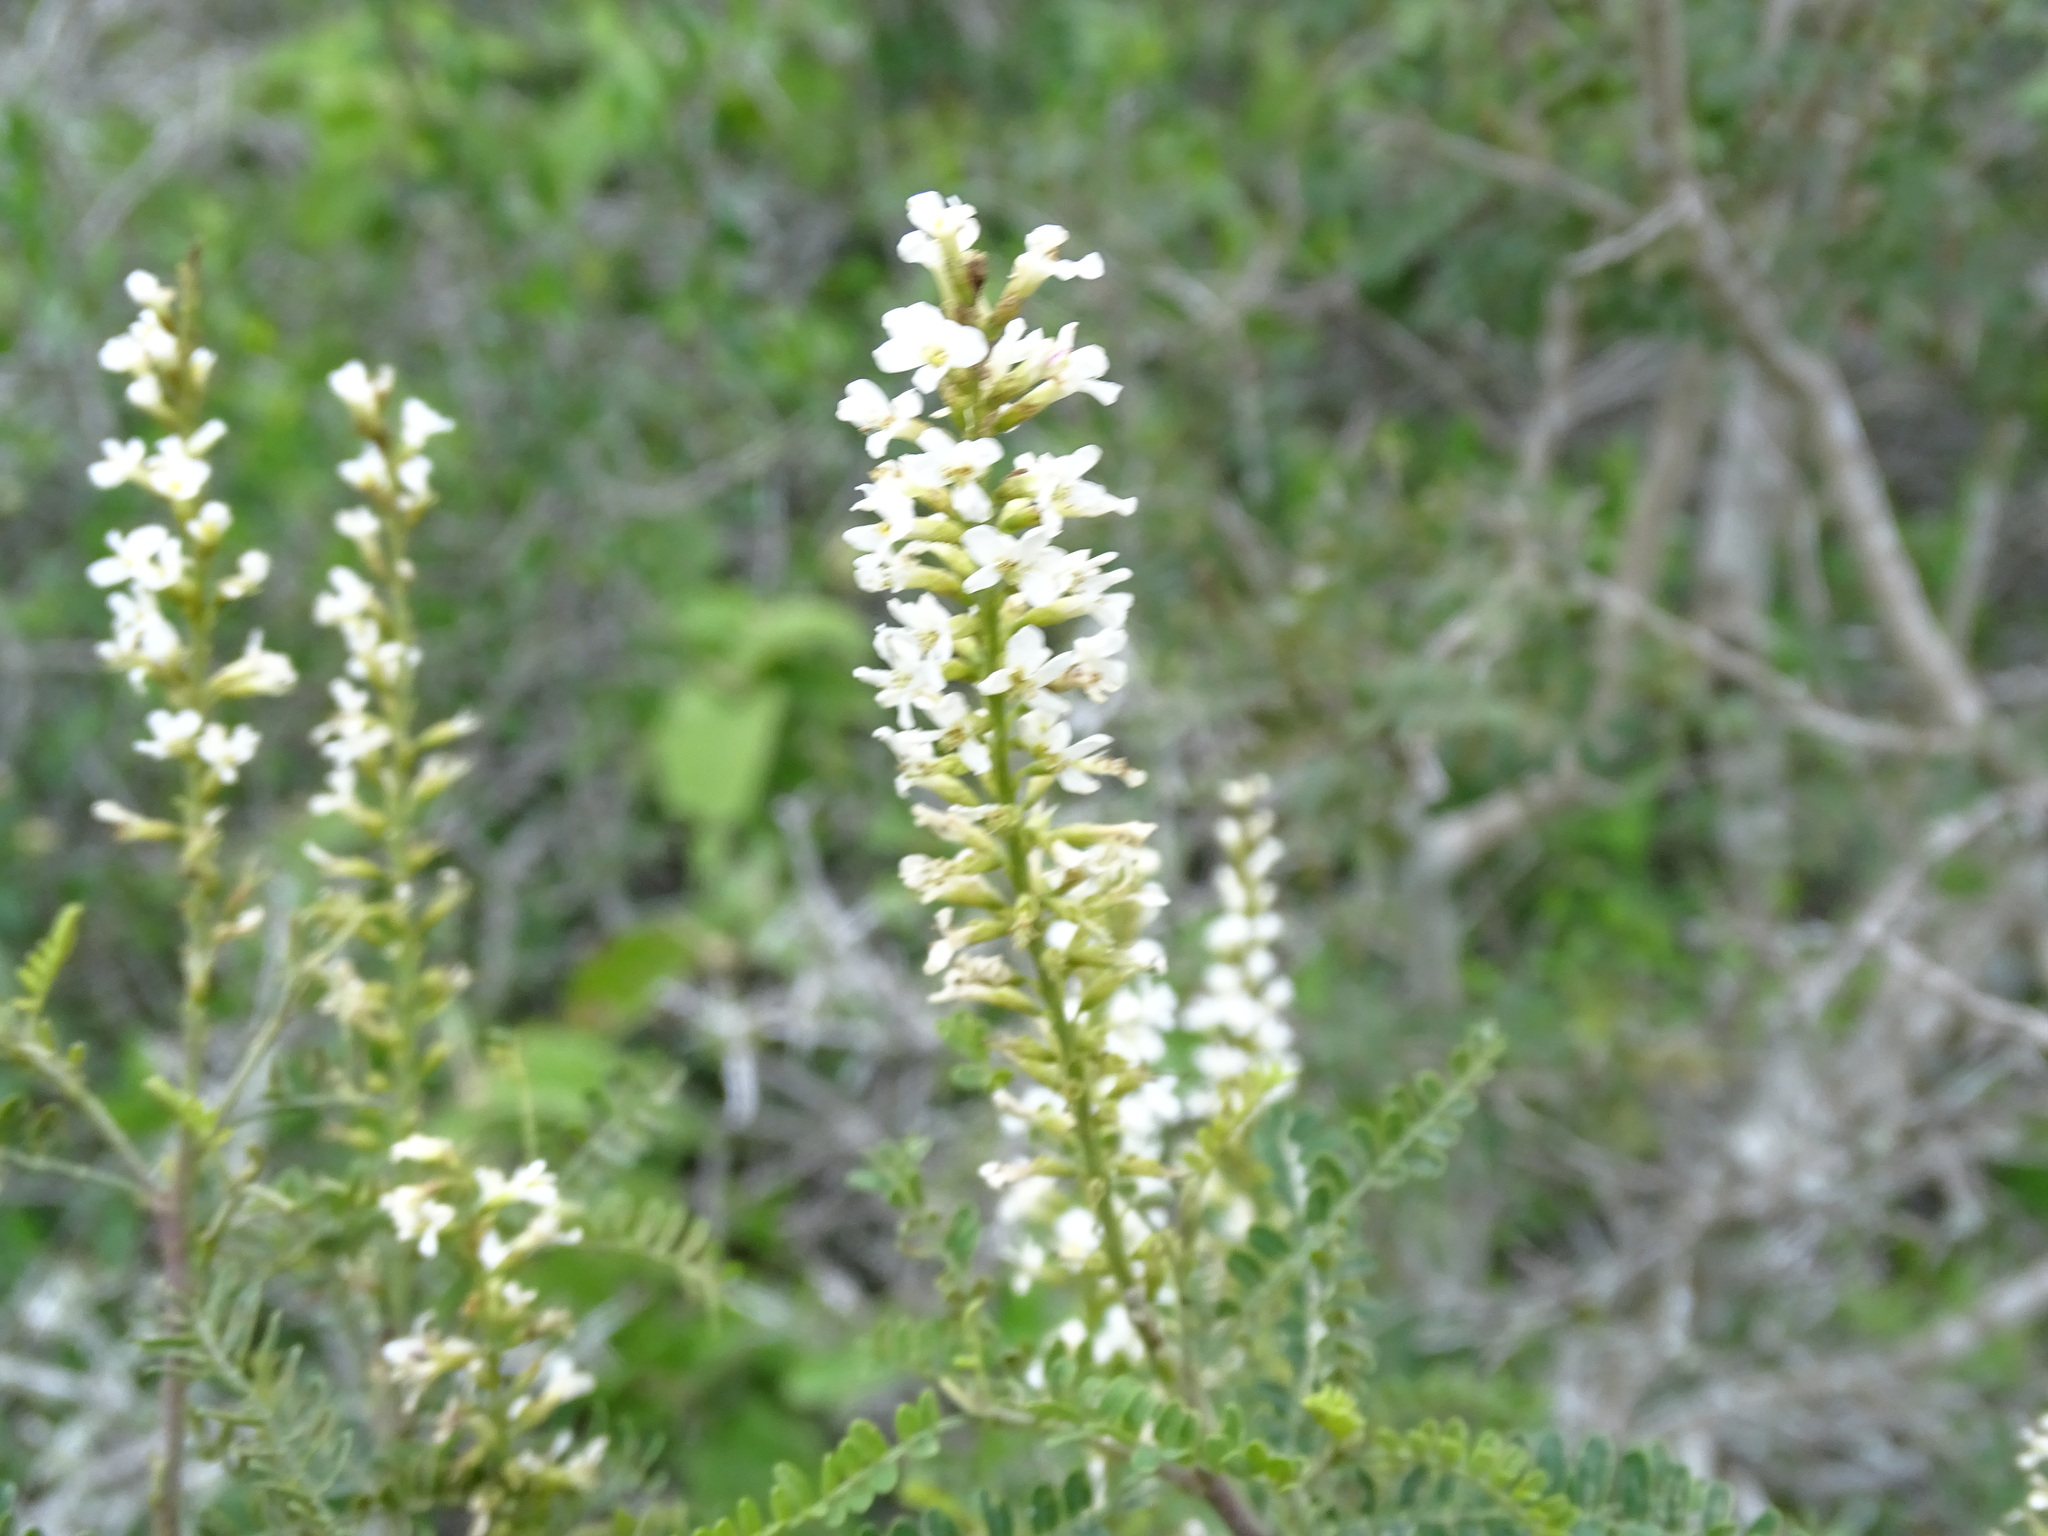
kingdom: Plantae
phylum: Tracheophyta
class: Magnoliopsida
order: Fabales
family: Fabaceae
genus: Eysenhardtia
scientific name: Eysenhardtia texana
